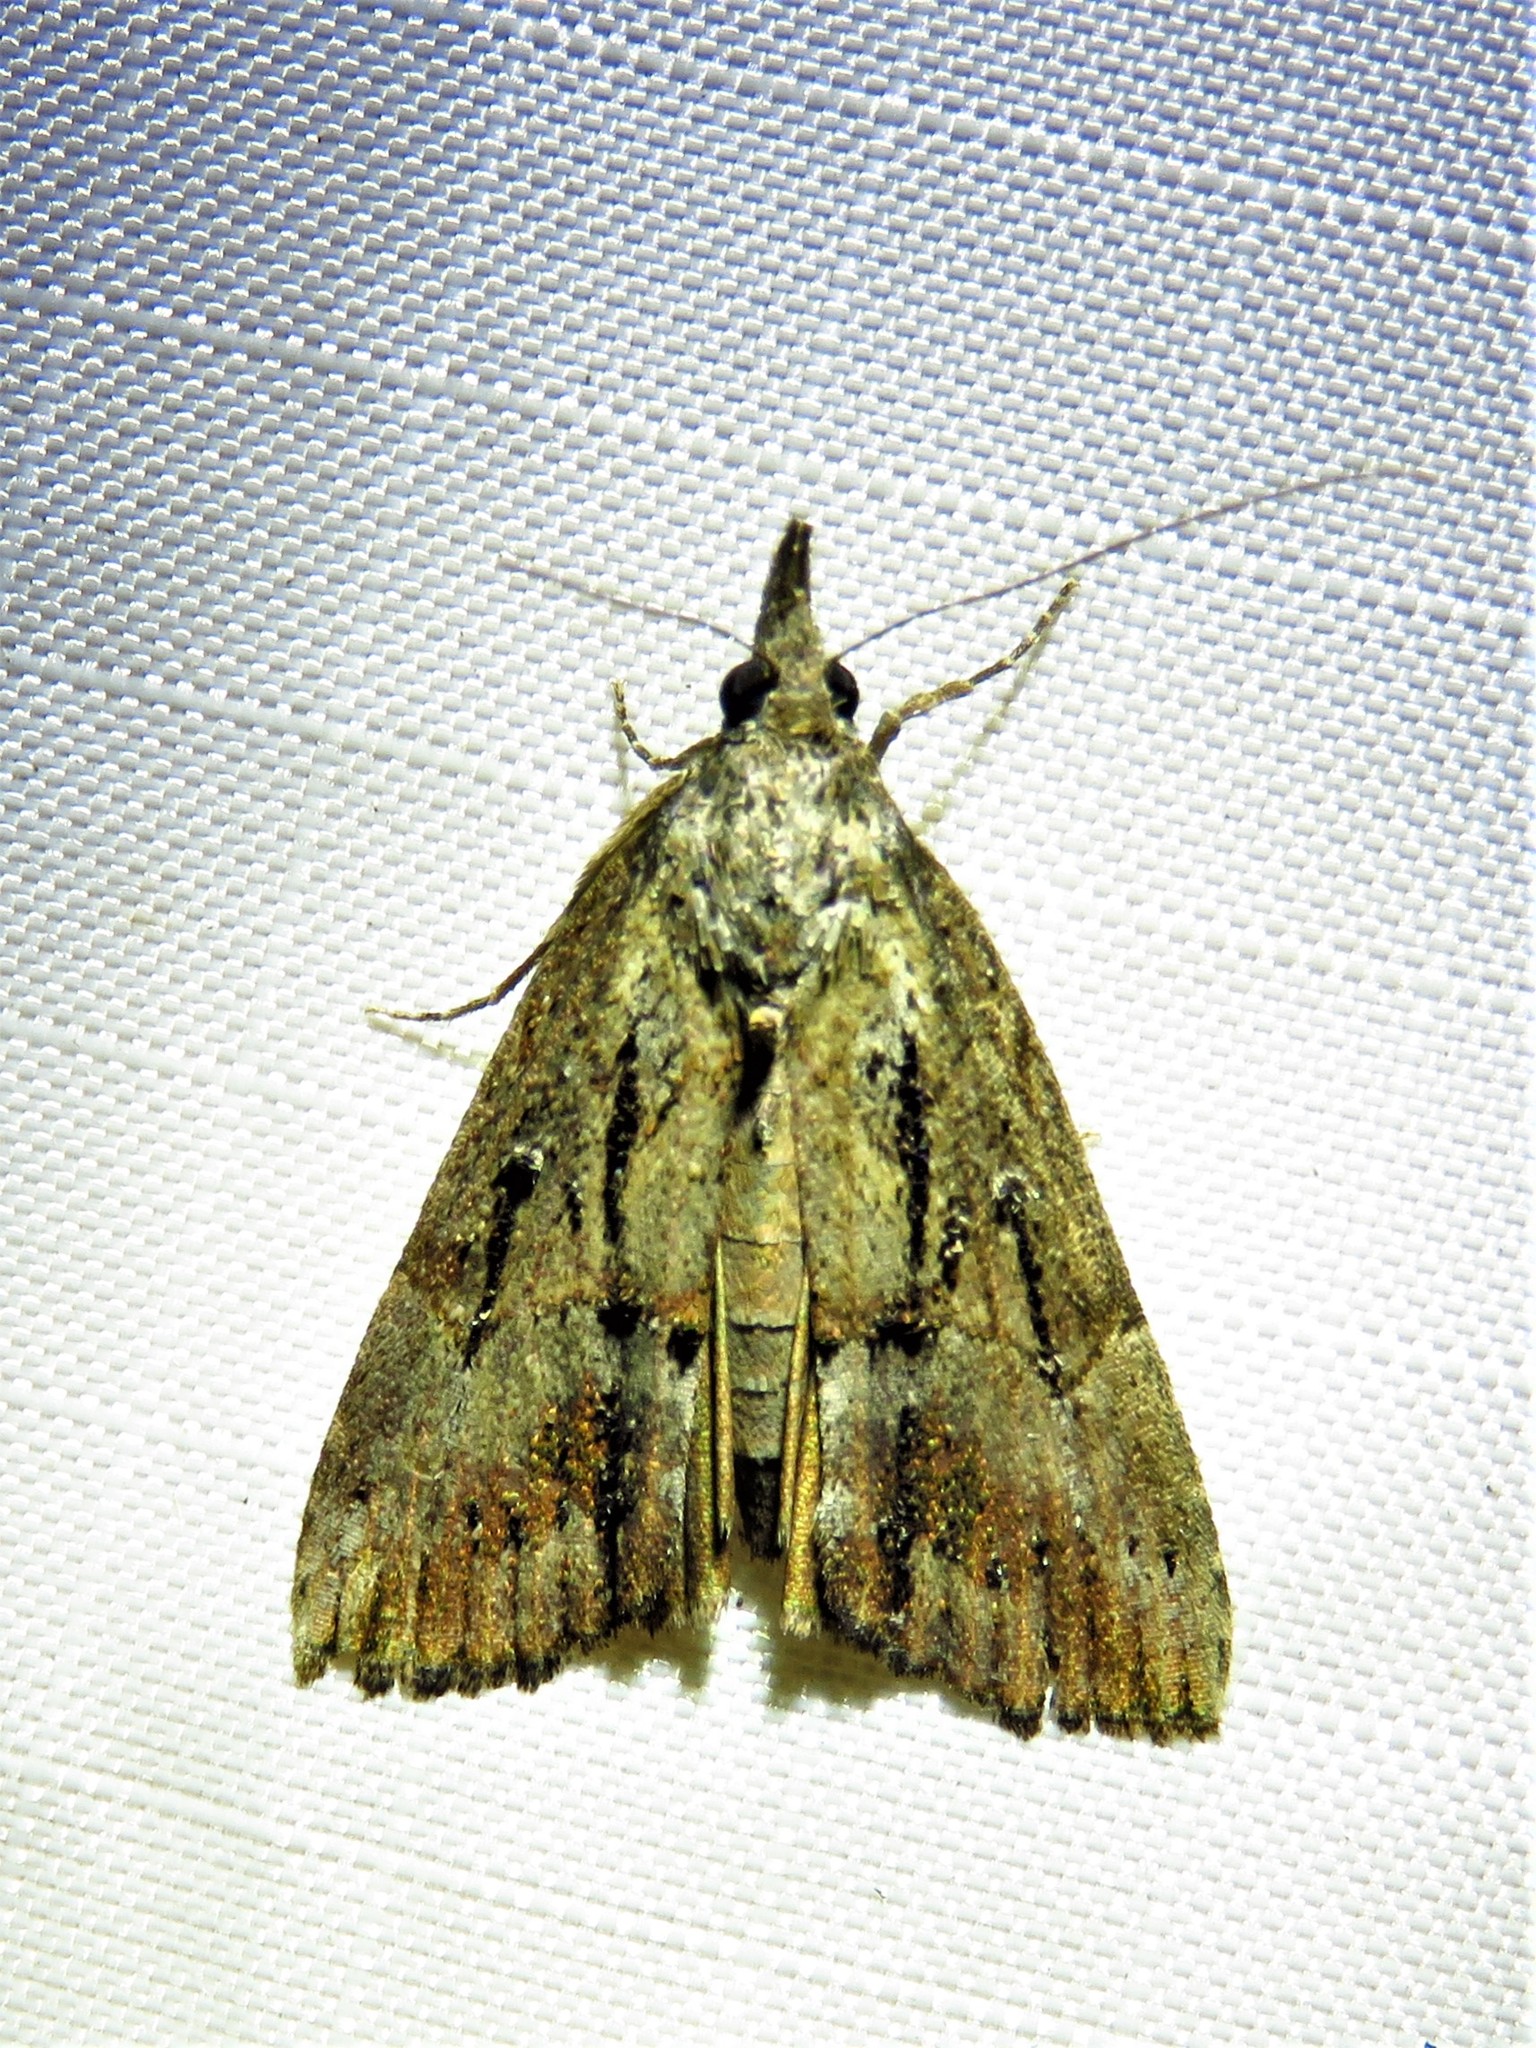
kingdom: Animalia
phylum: Arthropoda
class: Insecta
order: Lepidoptera
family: Erebidae
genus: Hypena
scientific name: Hypena scabra
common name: Green cloverworm
